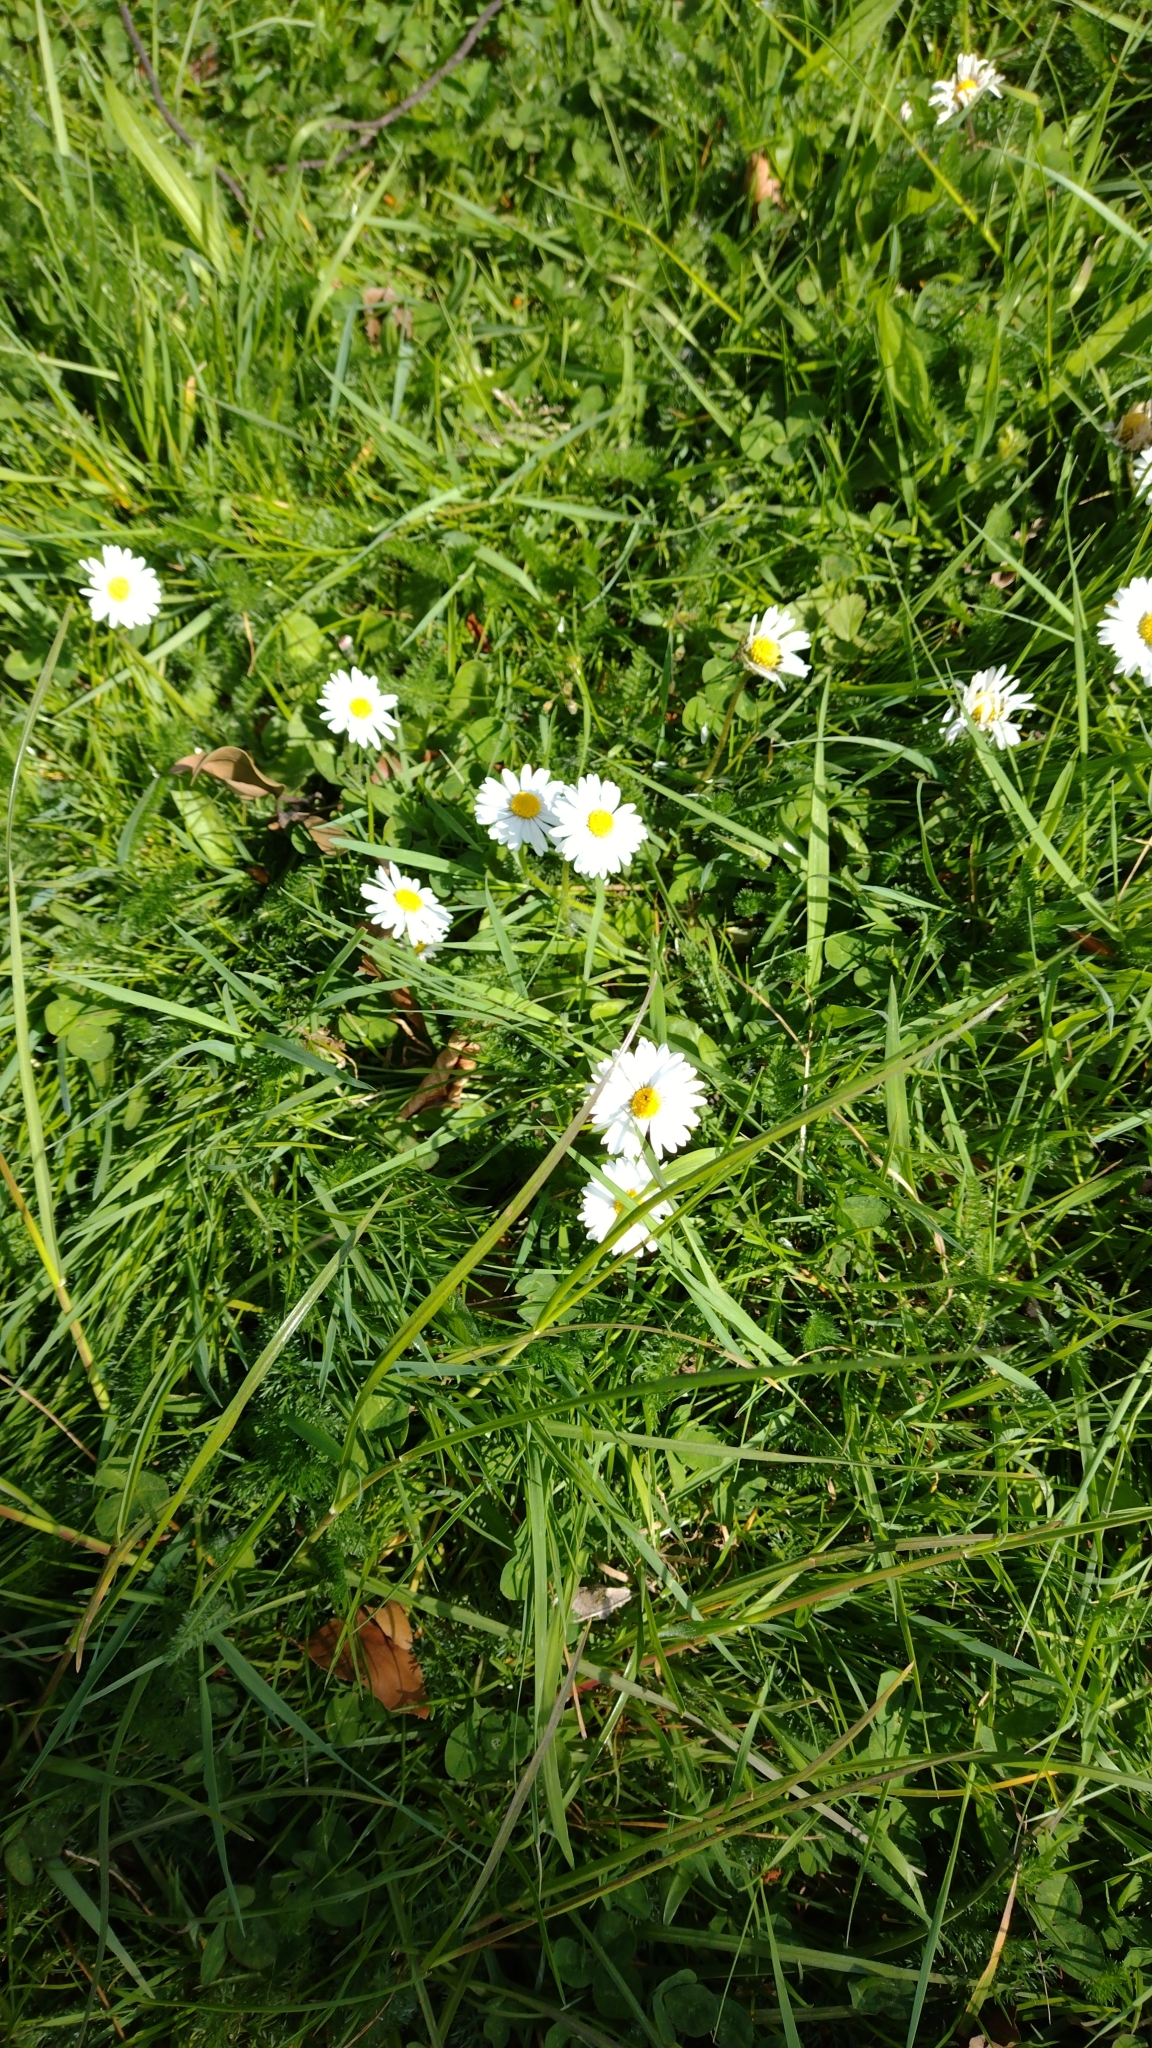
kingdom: Plantae
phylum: Tracheophyta
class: Magnoliopsida
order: Asterales
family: Asteraceae
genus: Bellis
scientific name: Bellis perennis
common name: Lawndaisy
